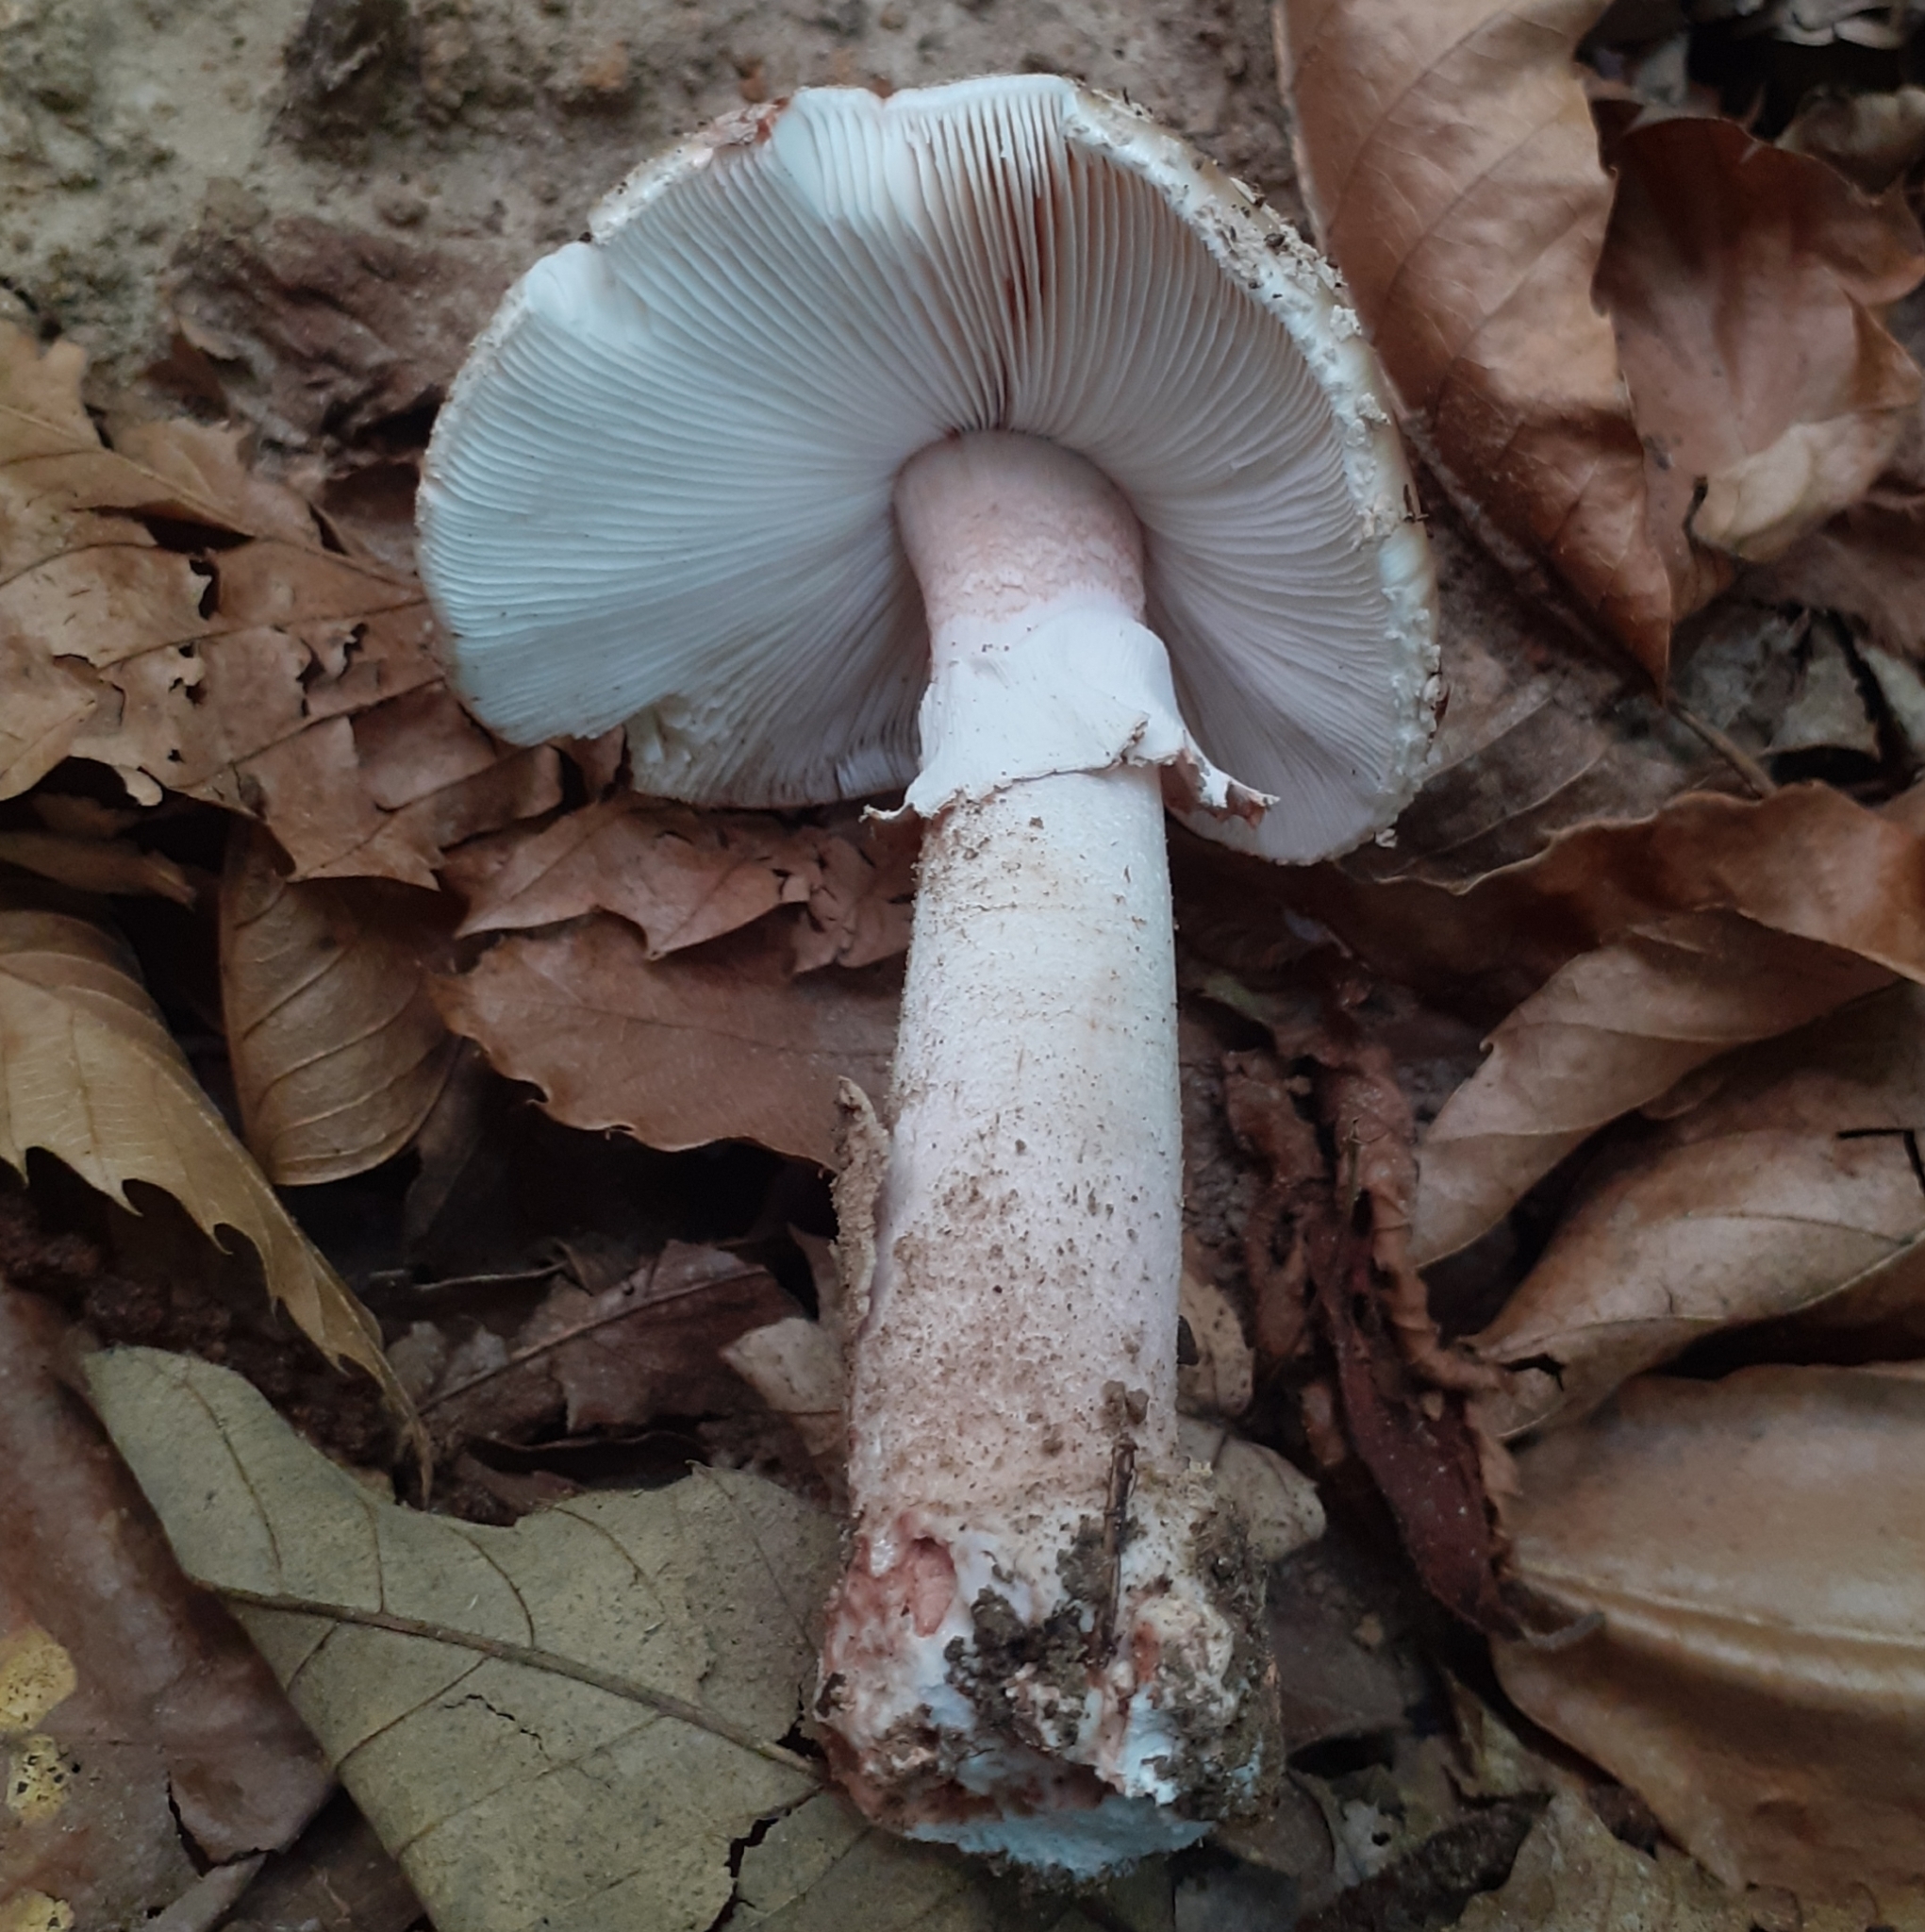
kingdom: Fungi
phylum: Basidiomycota
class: Agaricomycetes
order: Agaricales
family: Amanitaceae
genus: Amanita
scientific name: Amanita rubescens
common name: Blusher
